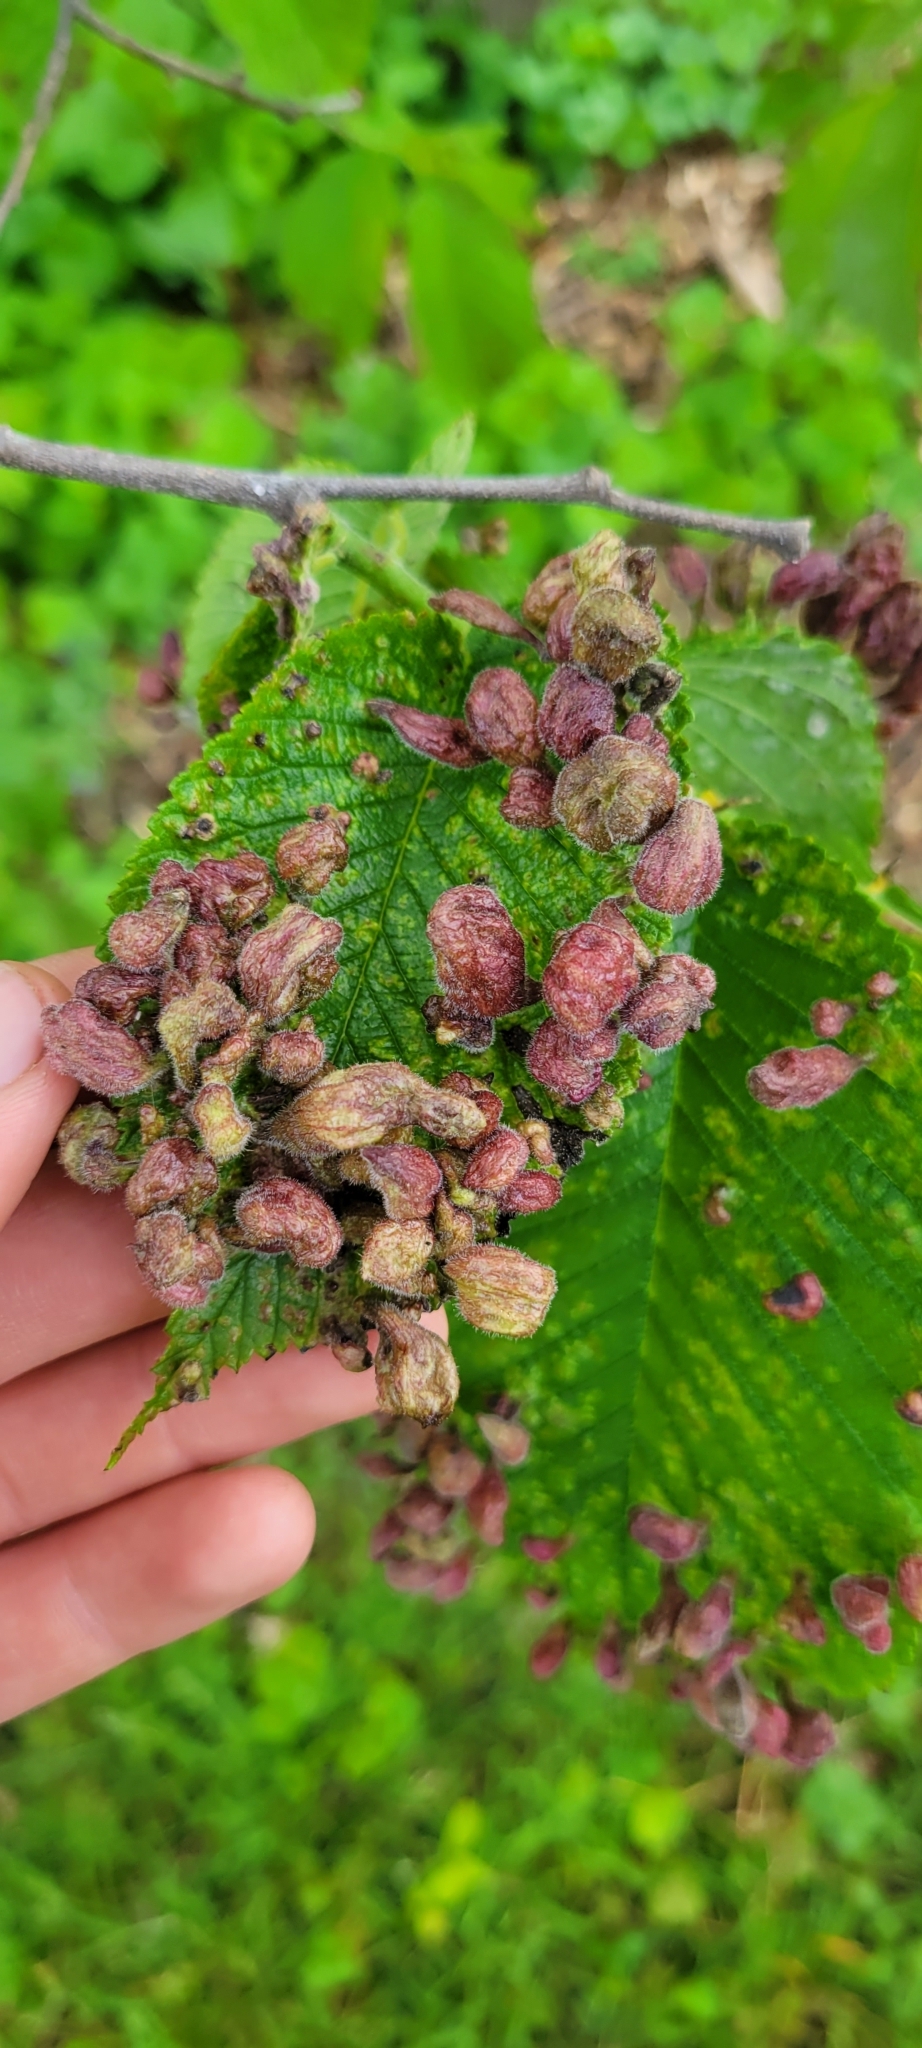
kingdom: Animalia
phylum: Arthropoda
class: Insecta
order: Hemiptera
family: Aphididae
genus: Tetraneura
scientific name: Tetraneura nigriabdominalis
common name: Aphid
